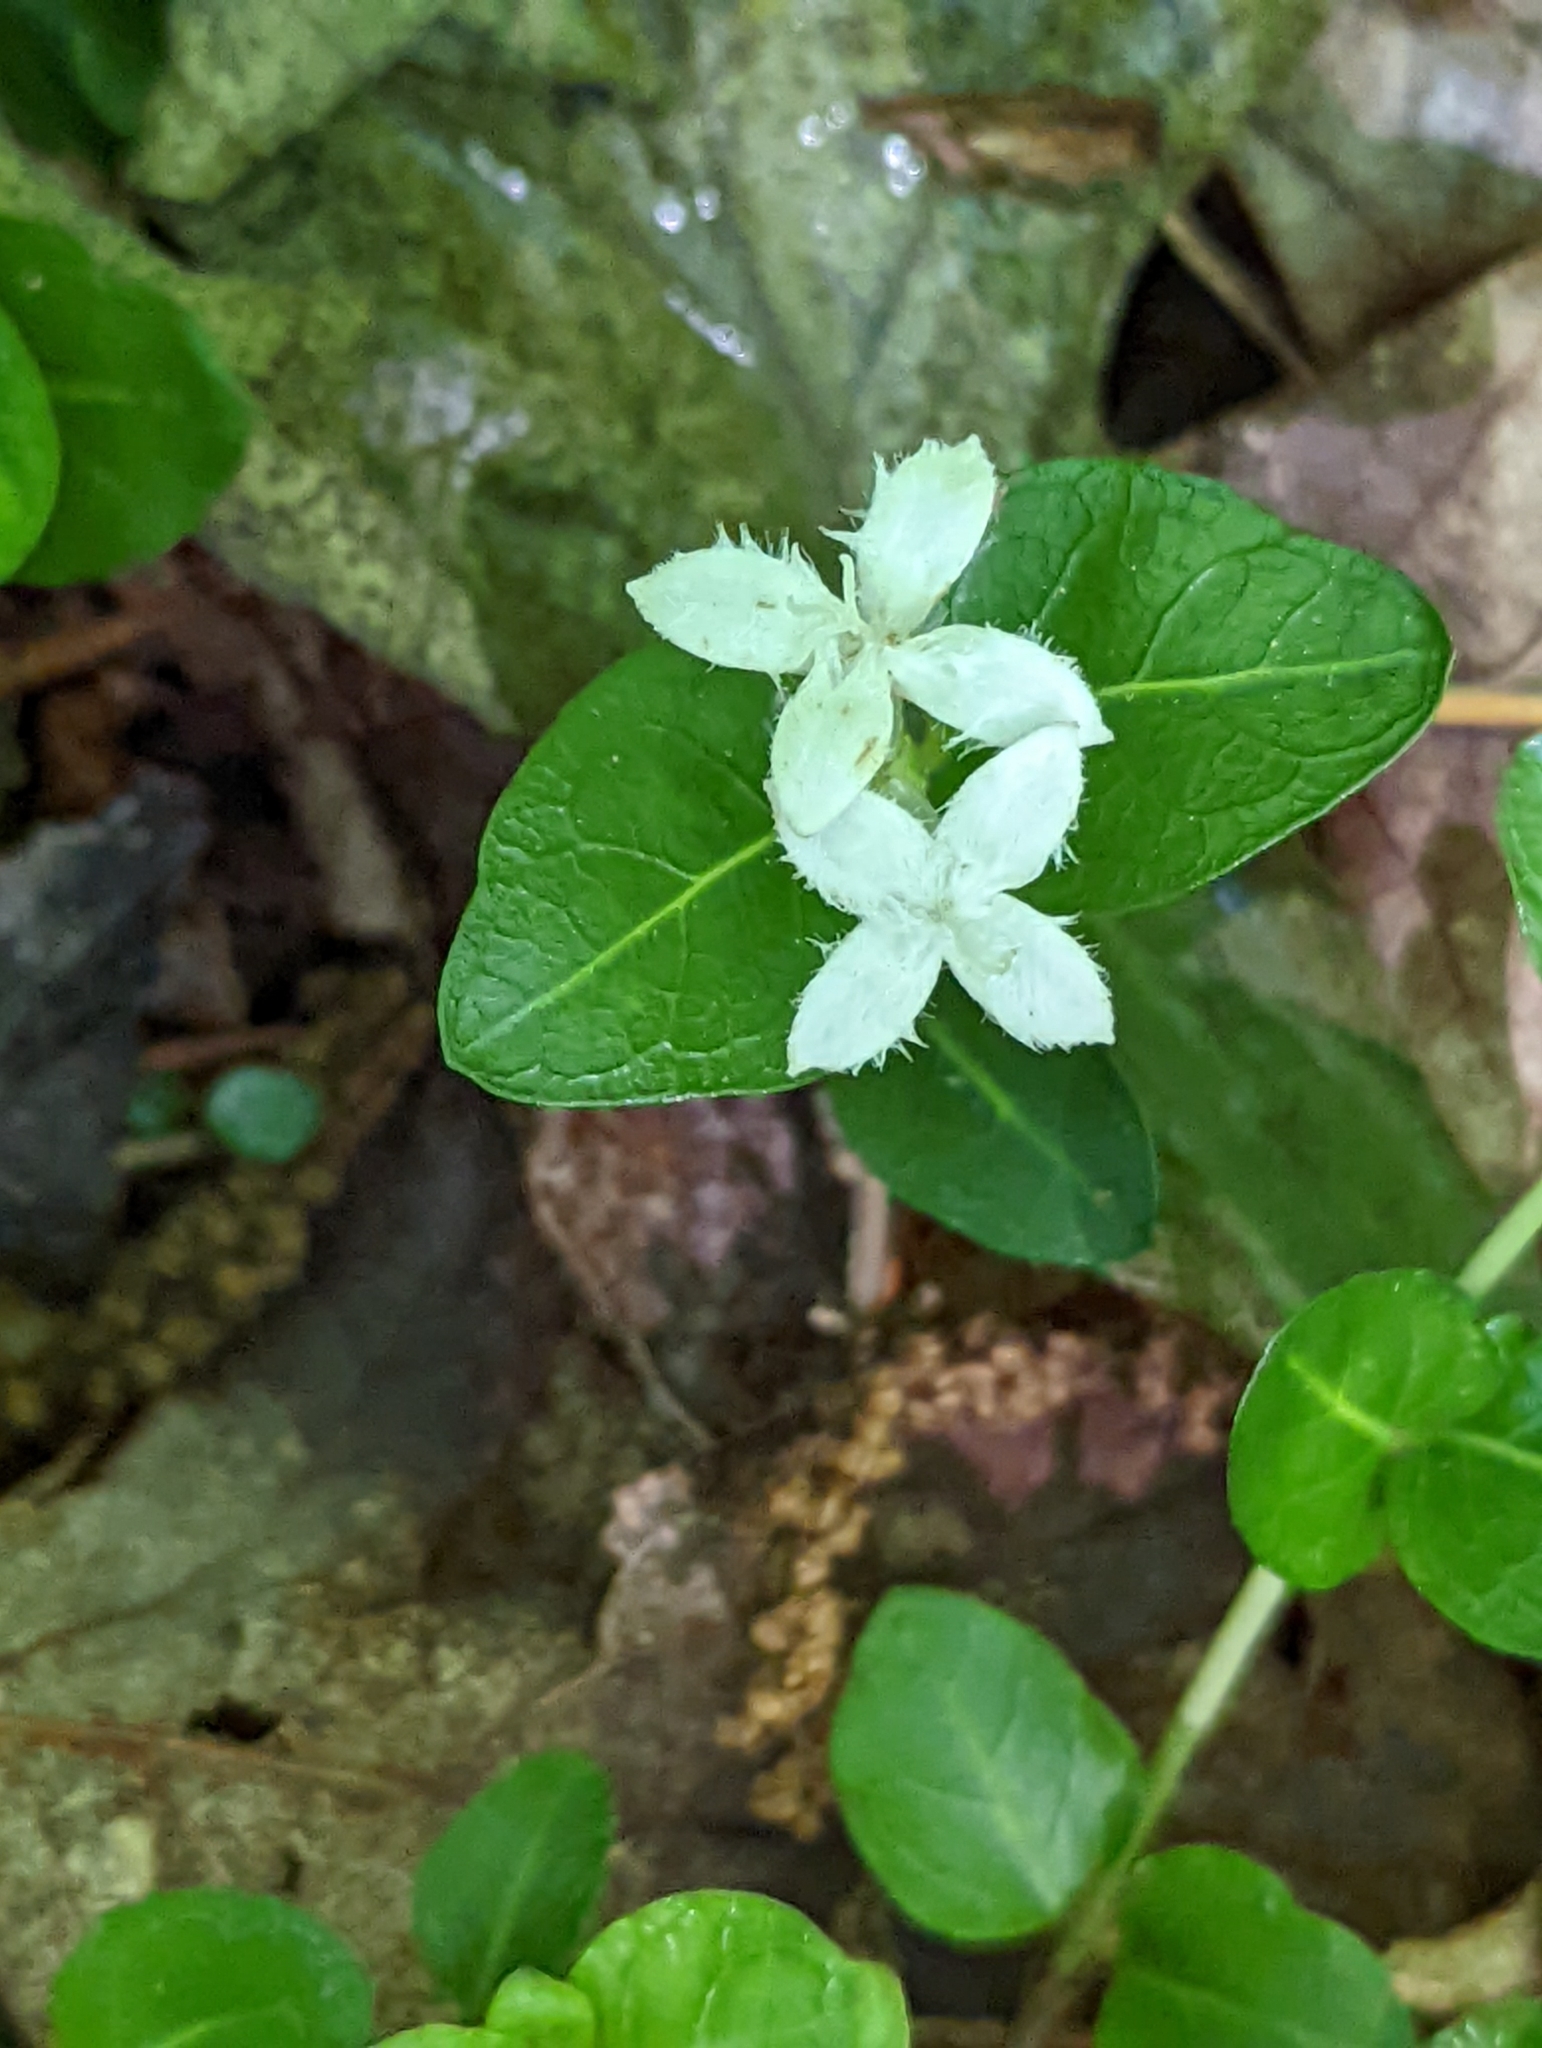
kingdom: Plantae
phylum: Tracheophyta
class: Magnoliopsida
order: Gentianales
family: Rubiaceae
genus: Mitchella
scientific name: Mitchella repens
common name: Partridge-berry
